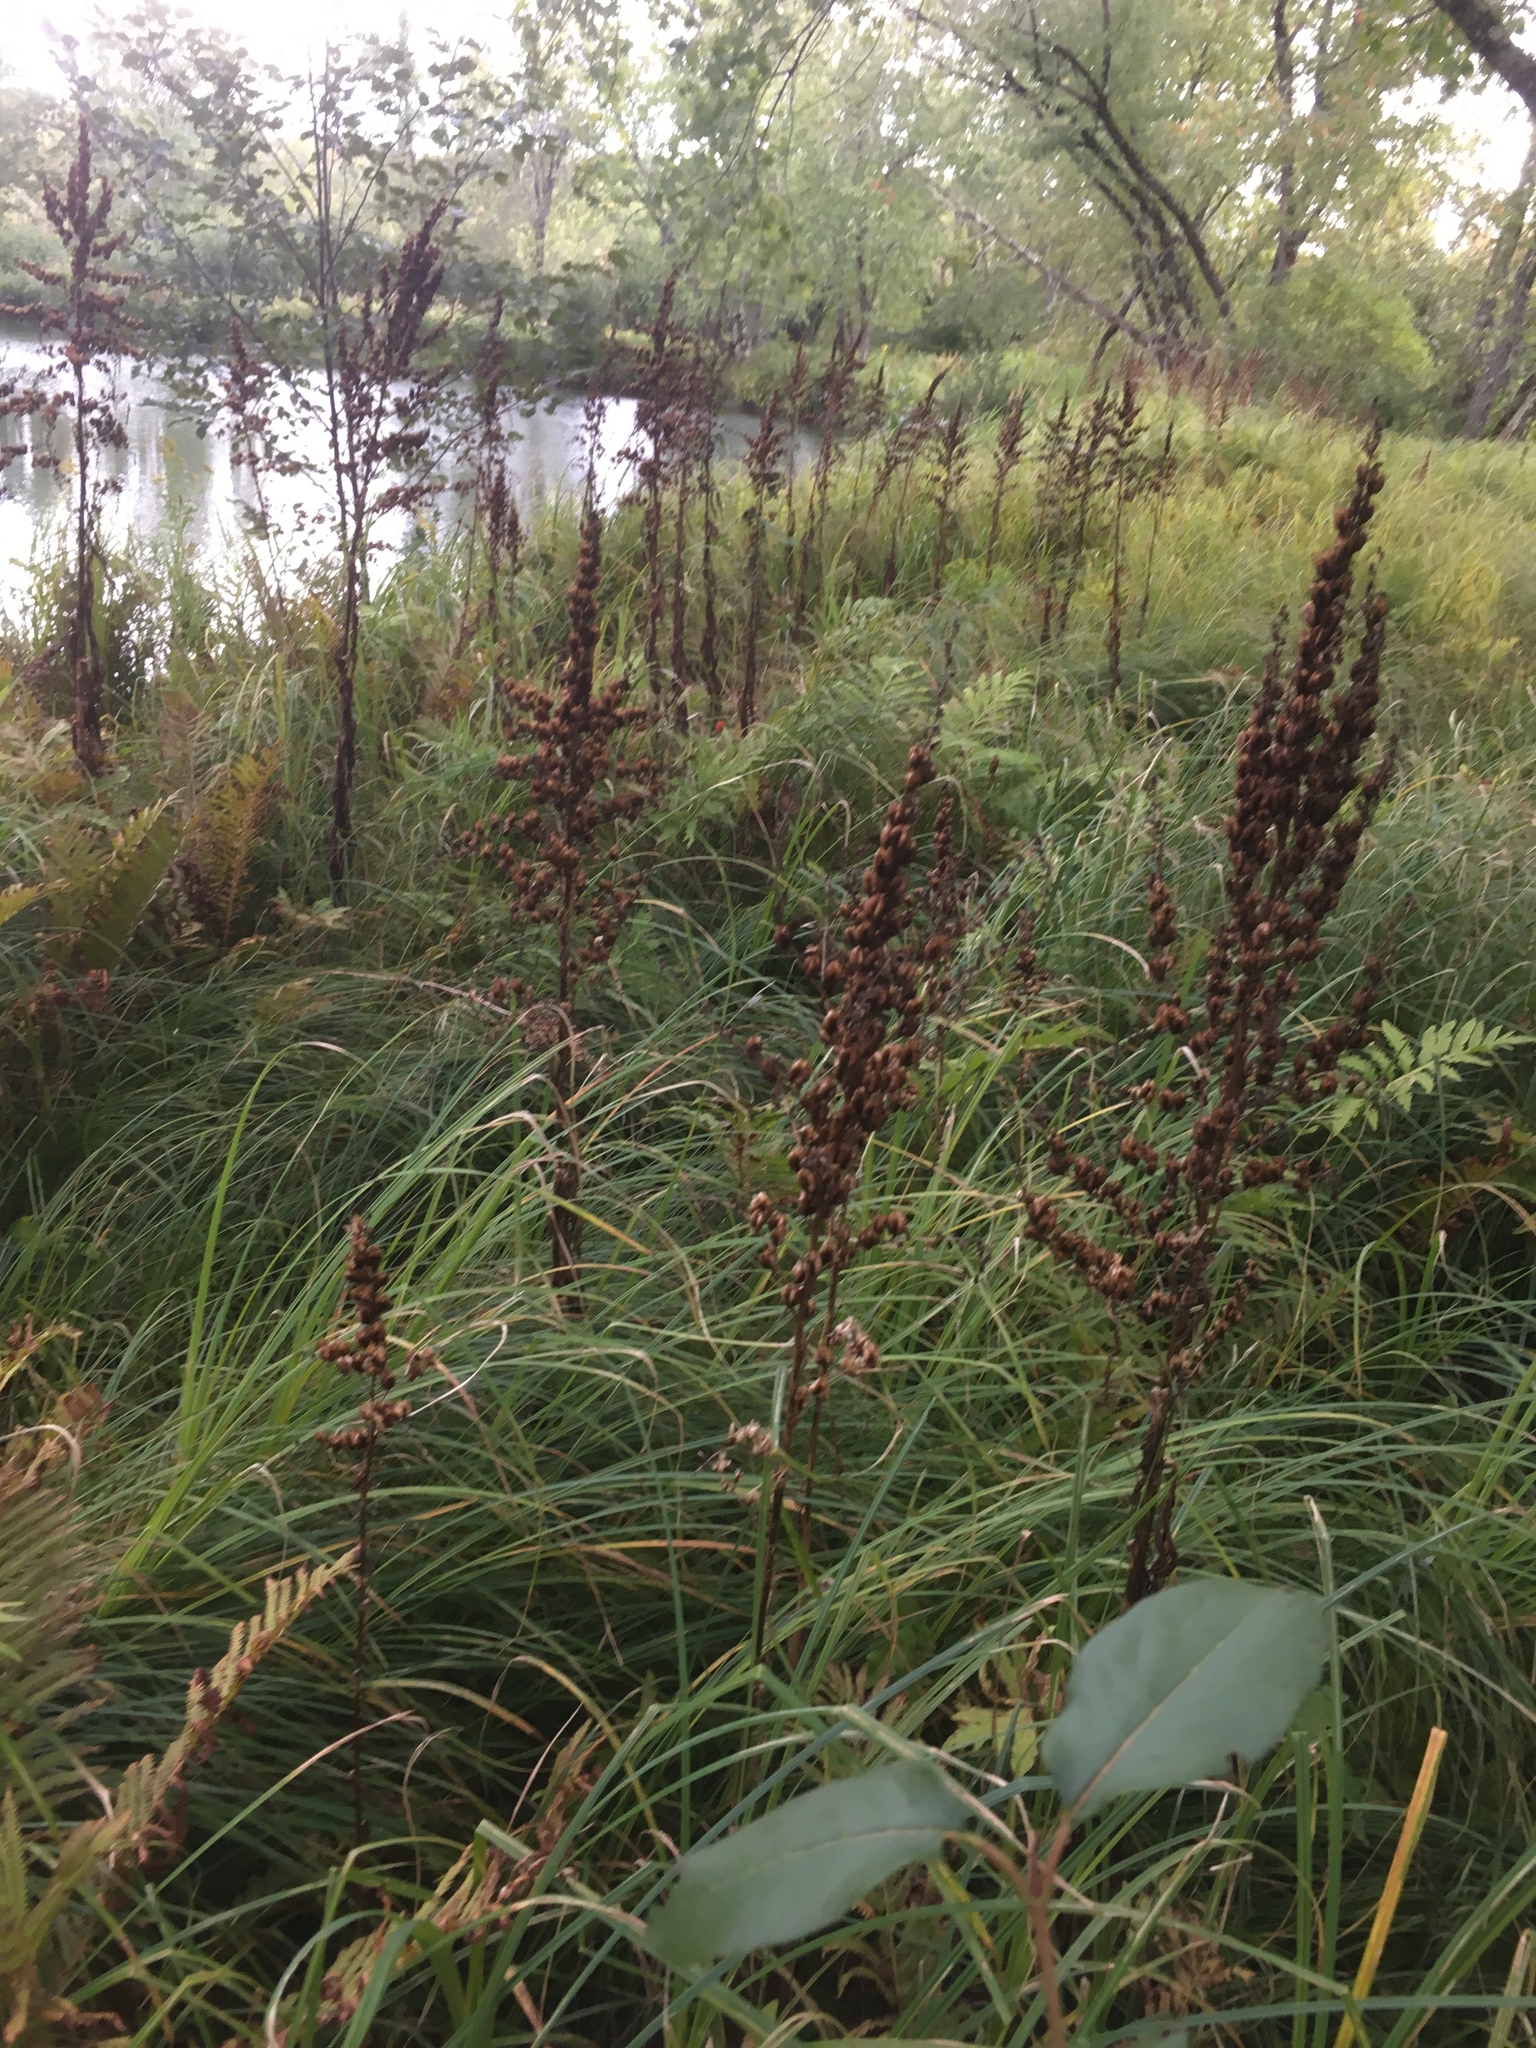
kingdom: Plantae
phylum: Tracheophyta
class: Liliopsida
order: Liliales
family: Melanthiaceae
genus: Veratrum
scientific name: Veratrum viride
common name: American false hellebore
